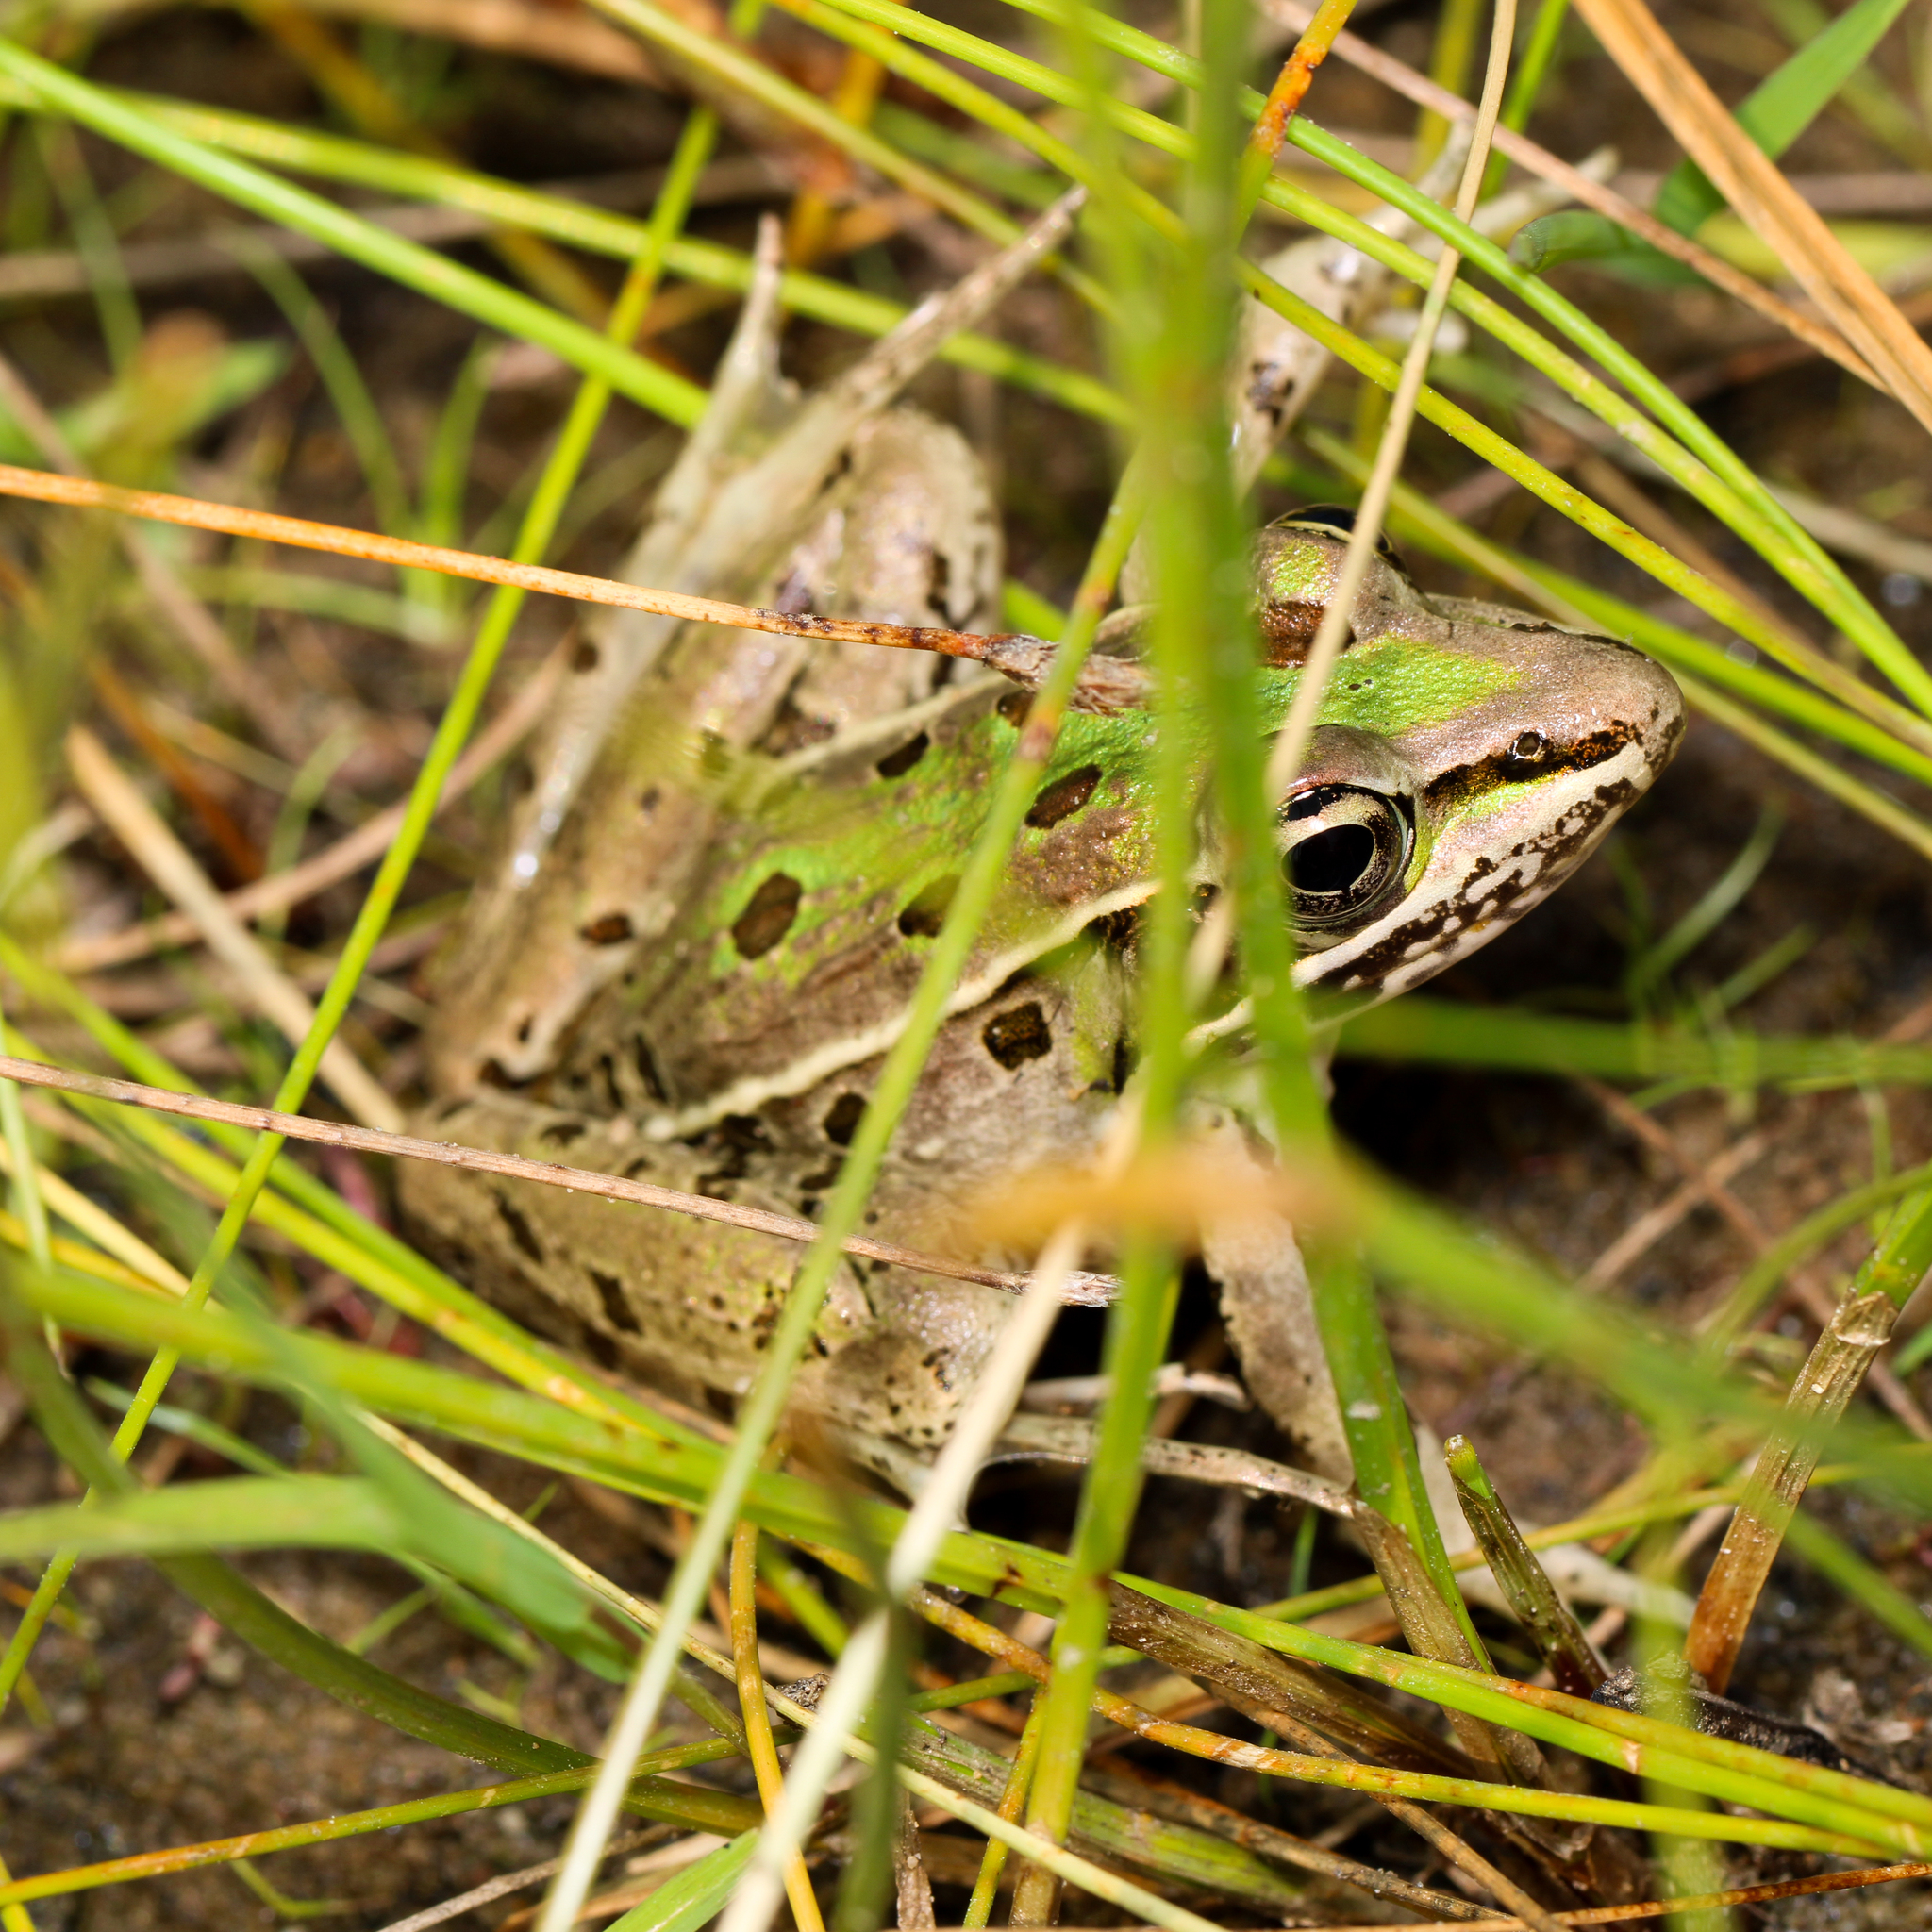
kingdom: Animalia
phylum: Chordata
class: Amphibia
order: Anura
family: Ranidae
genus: Lithobates
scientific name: Lithobates sphenocephalus
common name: Southern leopard frog
